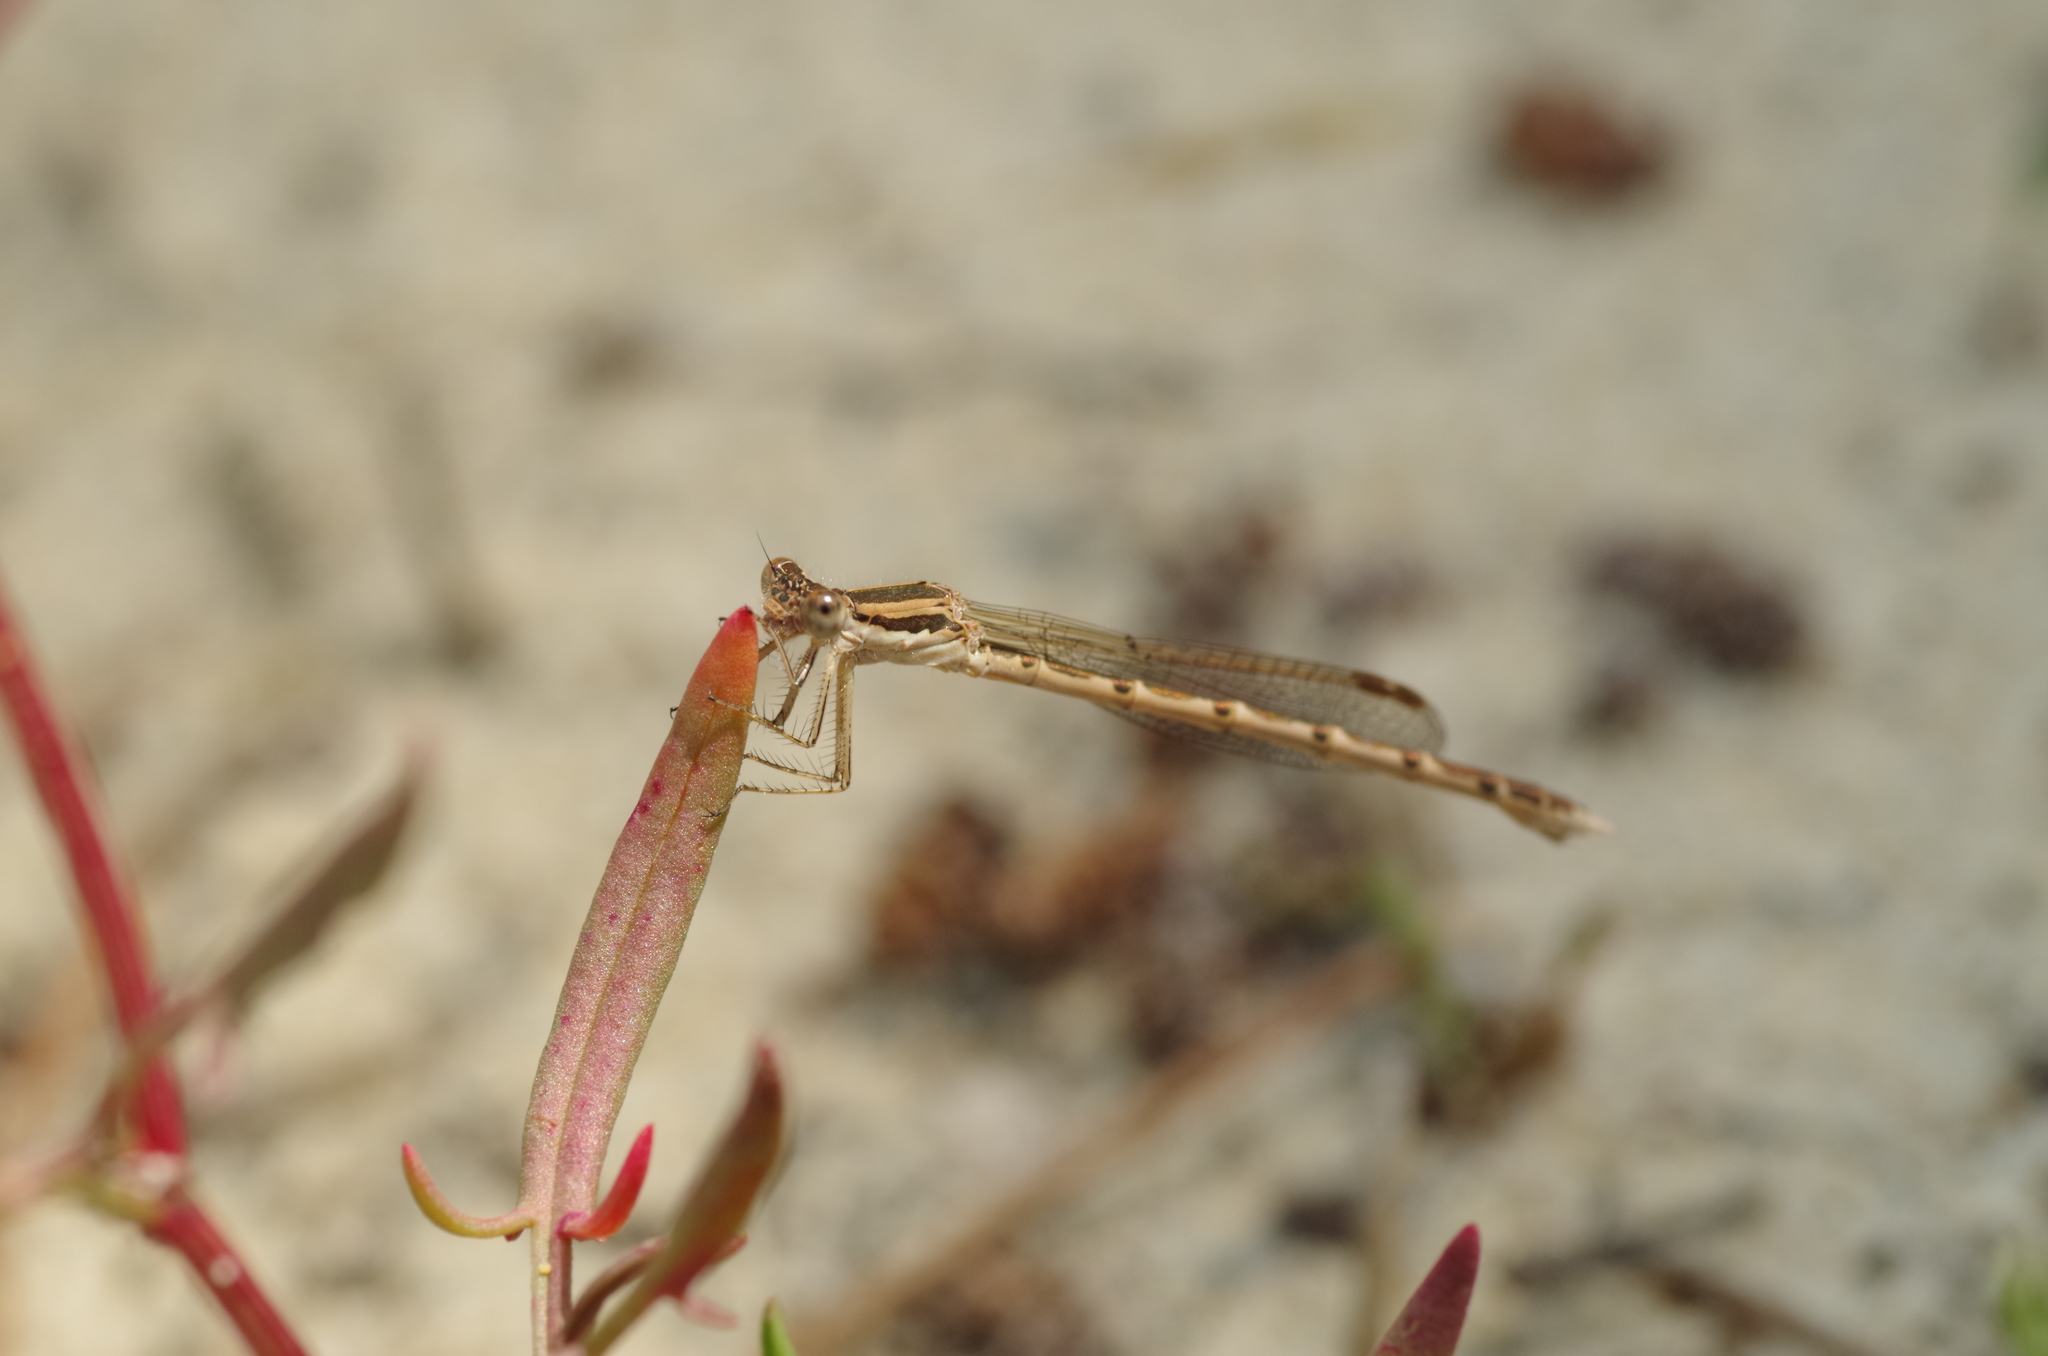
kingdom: Animalia
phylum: Arthropoda
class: Insecta
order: Odonata
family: Lestidae
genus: Sympecma
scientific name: Sympecma fusca
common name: Common winter damsel
